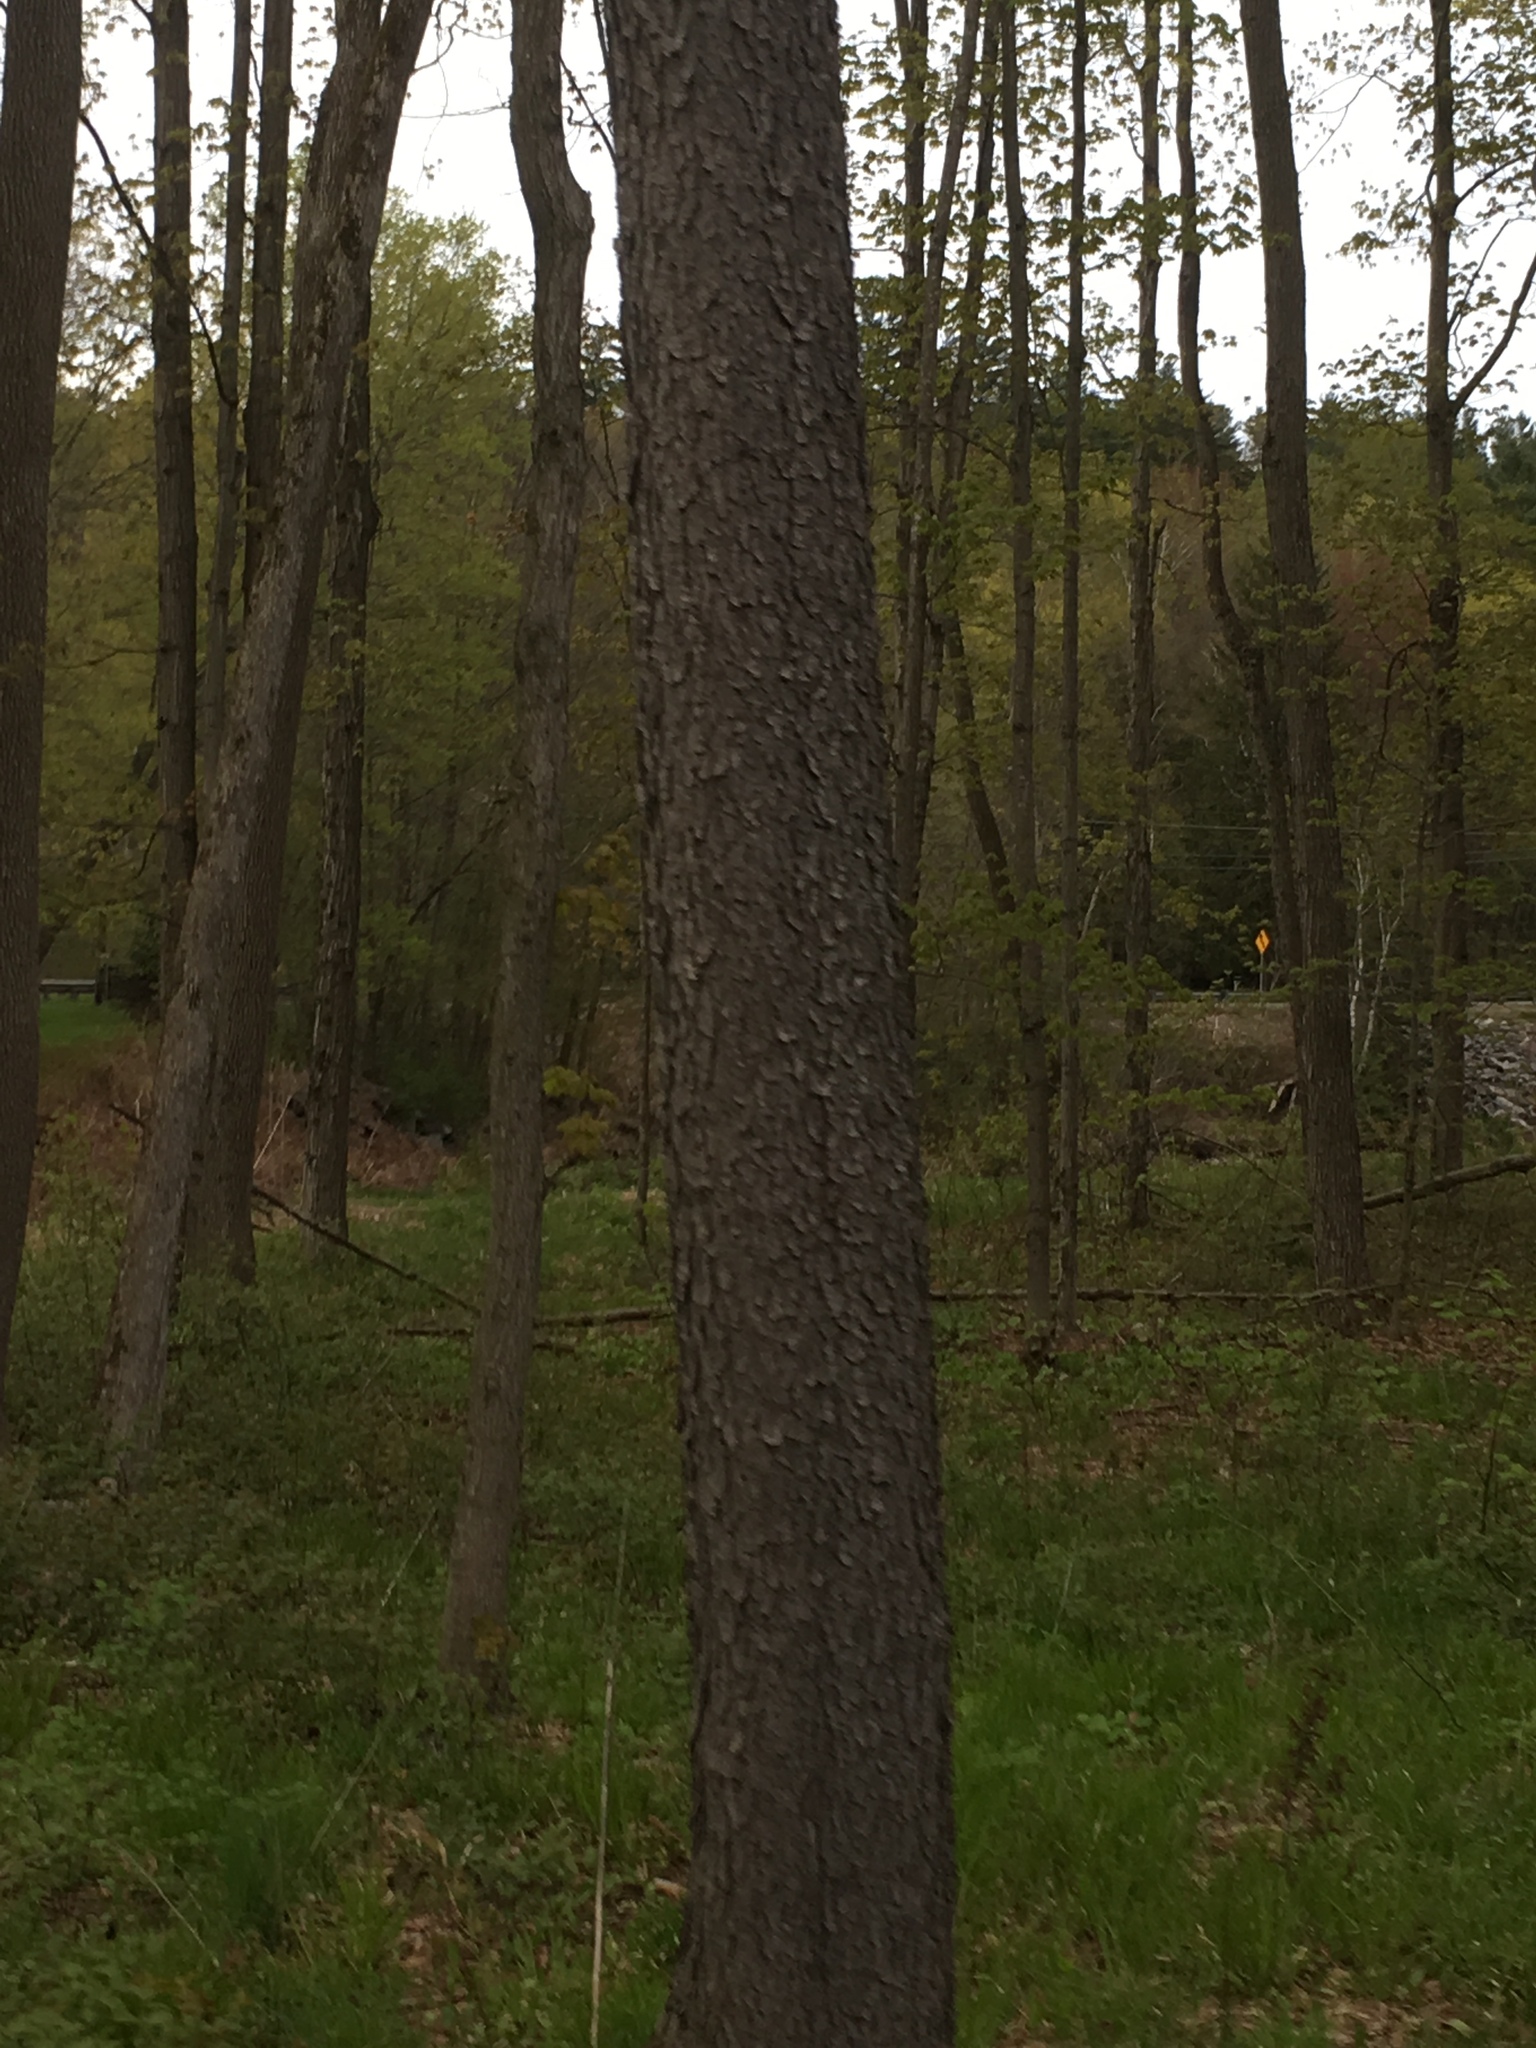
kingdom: Plantae
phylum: Tracheophyta
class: Magnoliopsida
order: Rosales
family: Rosaceae
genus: Prunus
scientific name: Prunus serotina
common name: Black cherry
